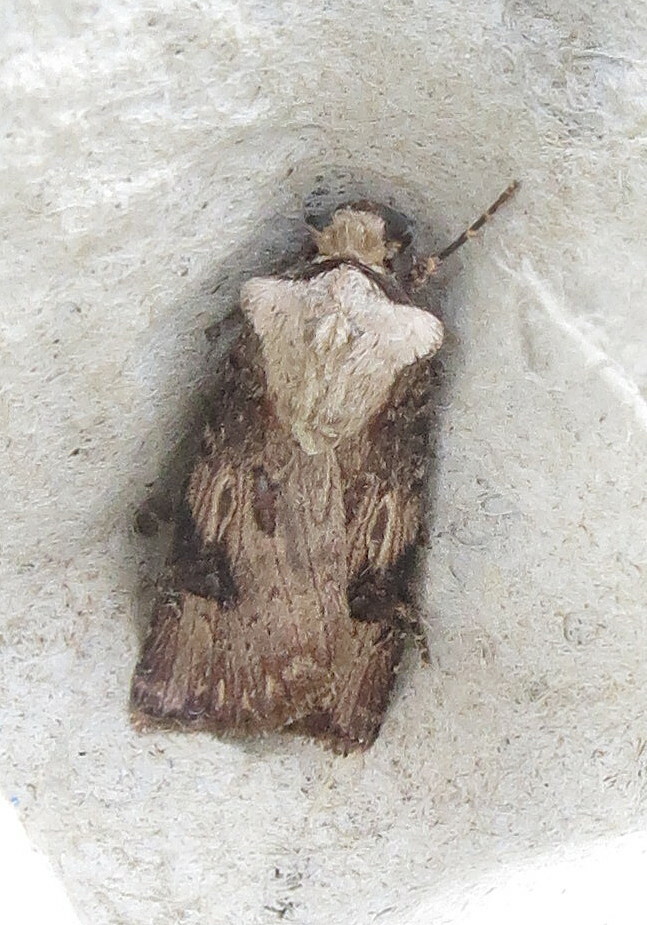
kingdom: Animalia
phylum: Arthropoda
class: Insecta
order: Lepidoptera
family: Noctuidae
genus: Agrotis
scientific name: Agrotis puta
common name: Shuttle-shaped dart
